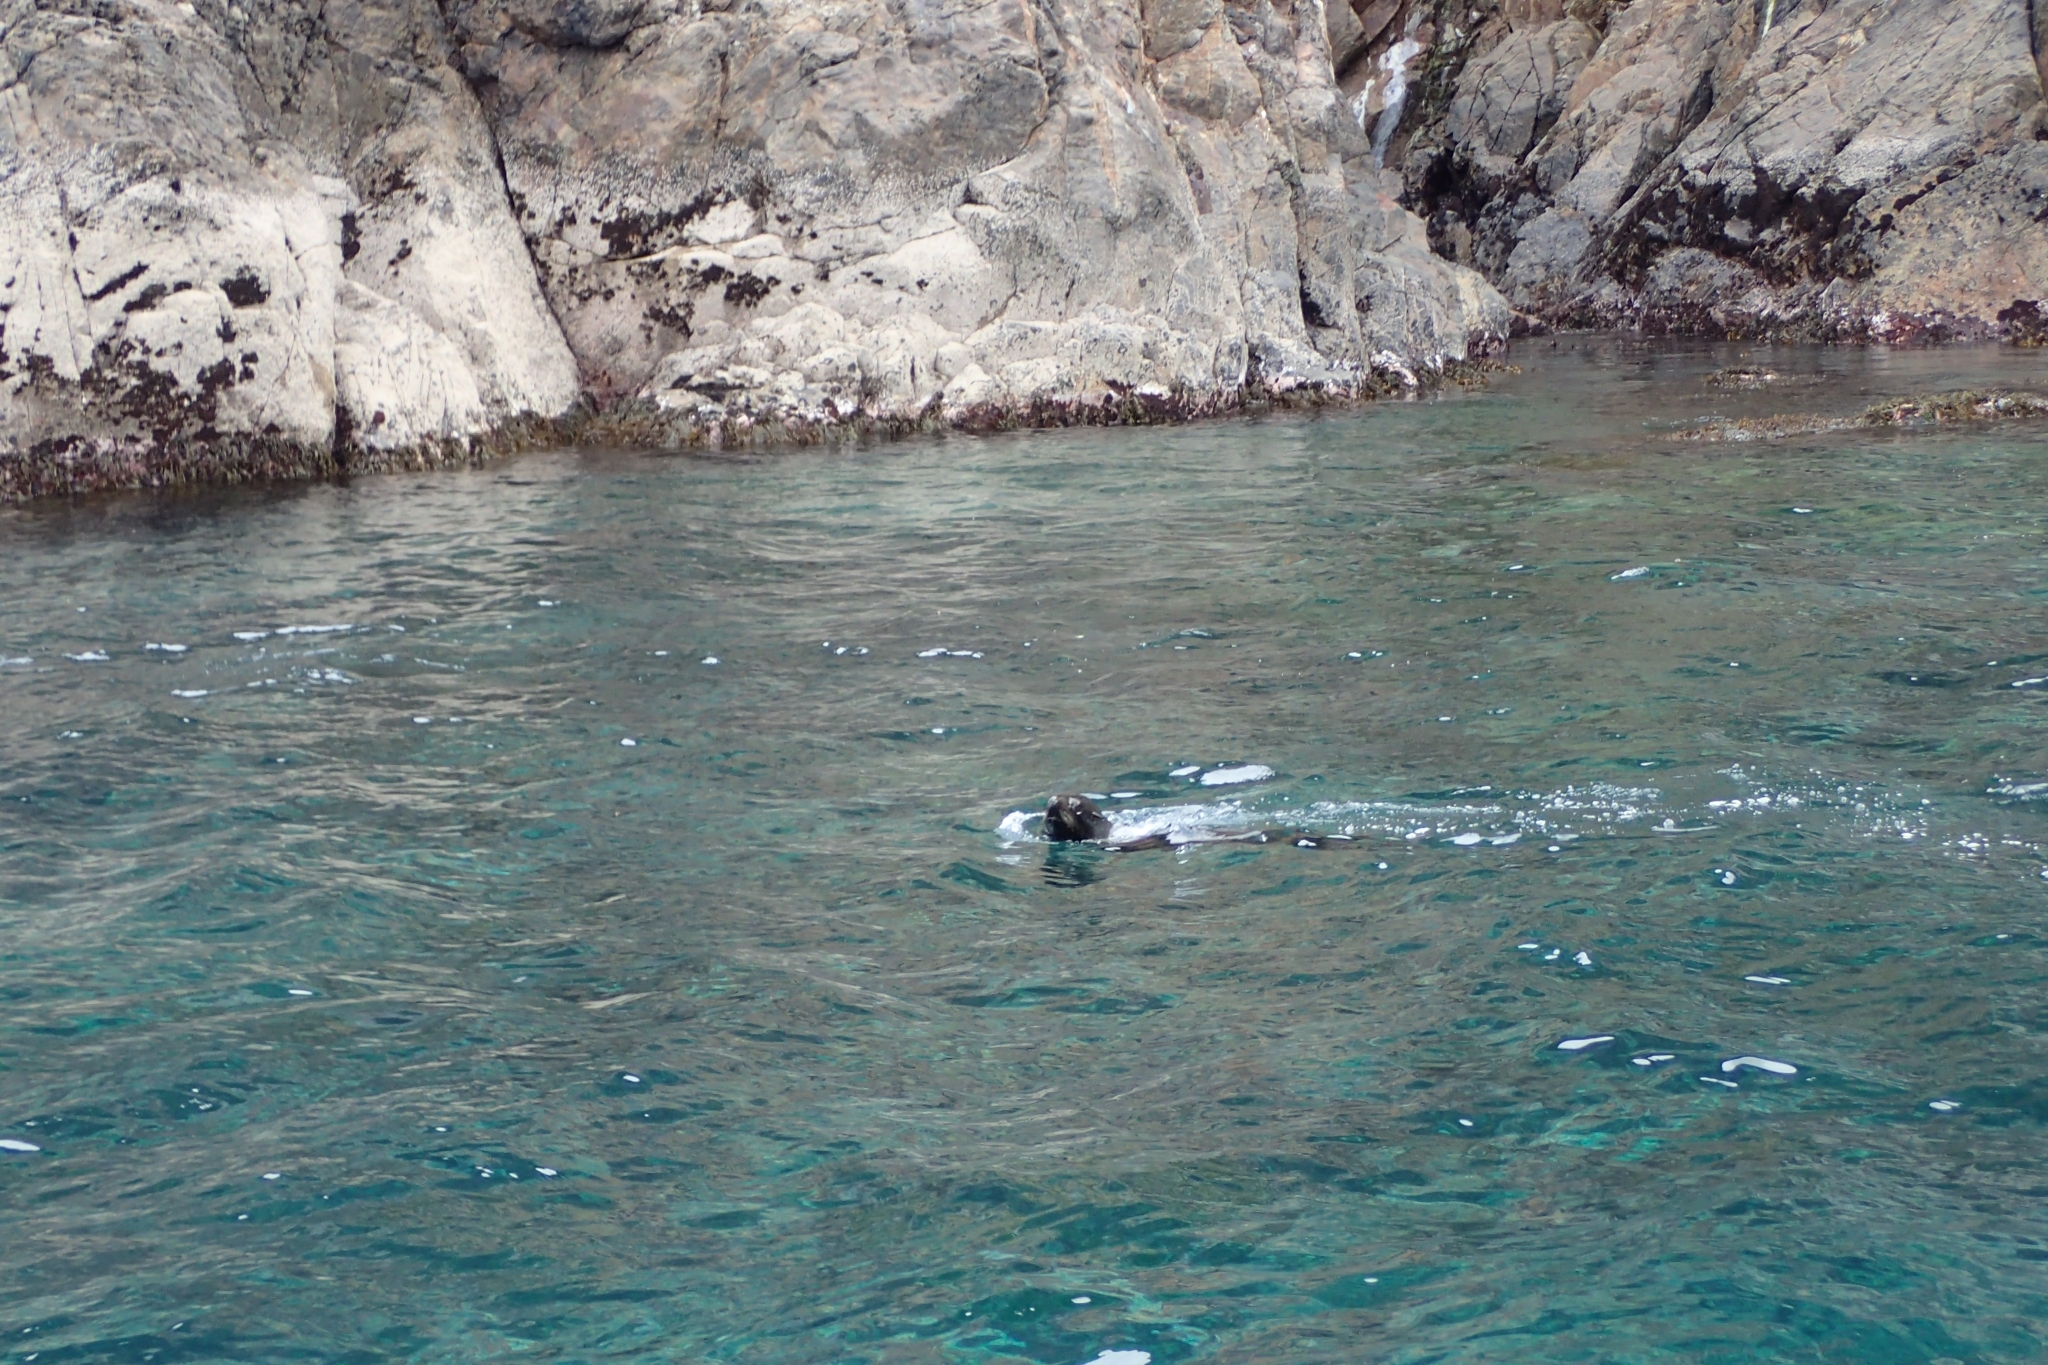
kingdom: Animalia
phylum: Chordata
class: Mammalia
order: Carnivora
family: Otariidae
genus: Arctocephalus
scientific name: Arctocephalus forsteri
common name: New zealand fur seal
